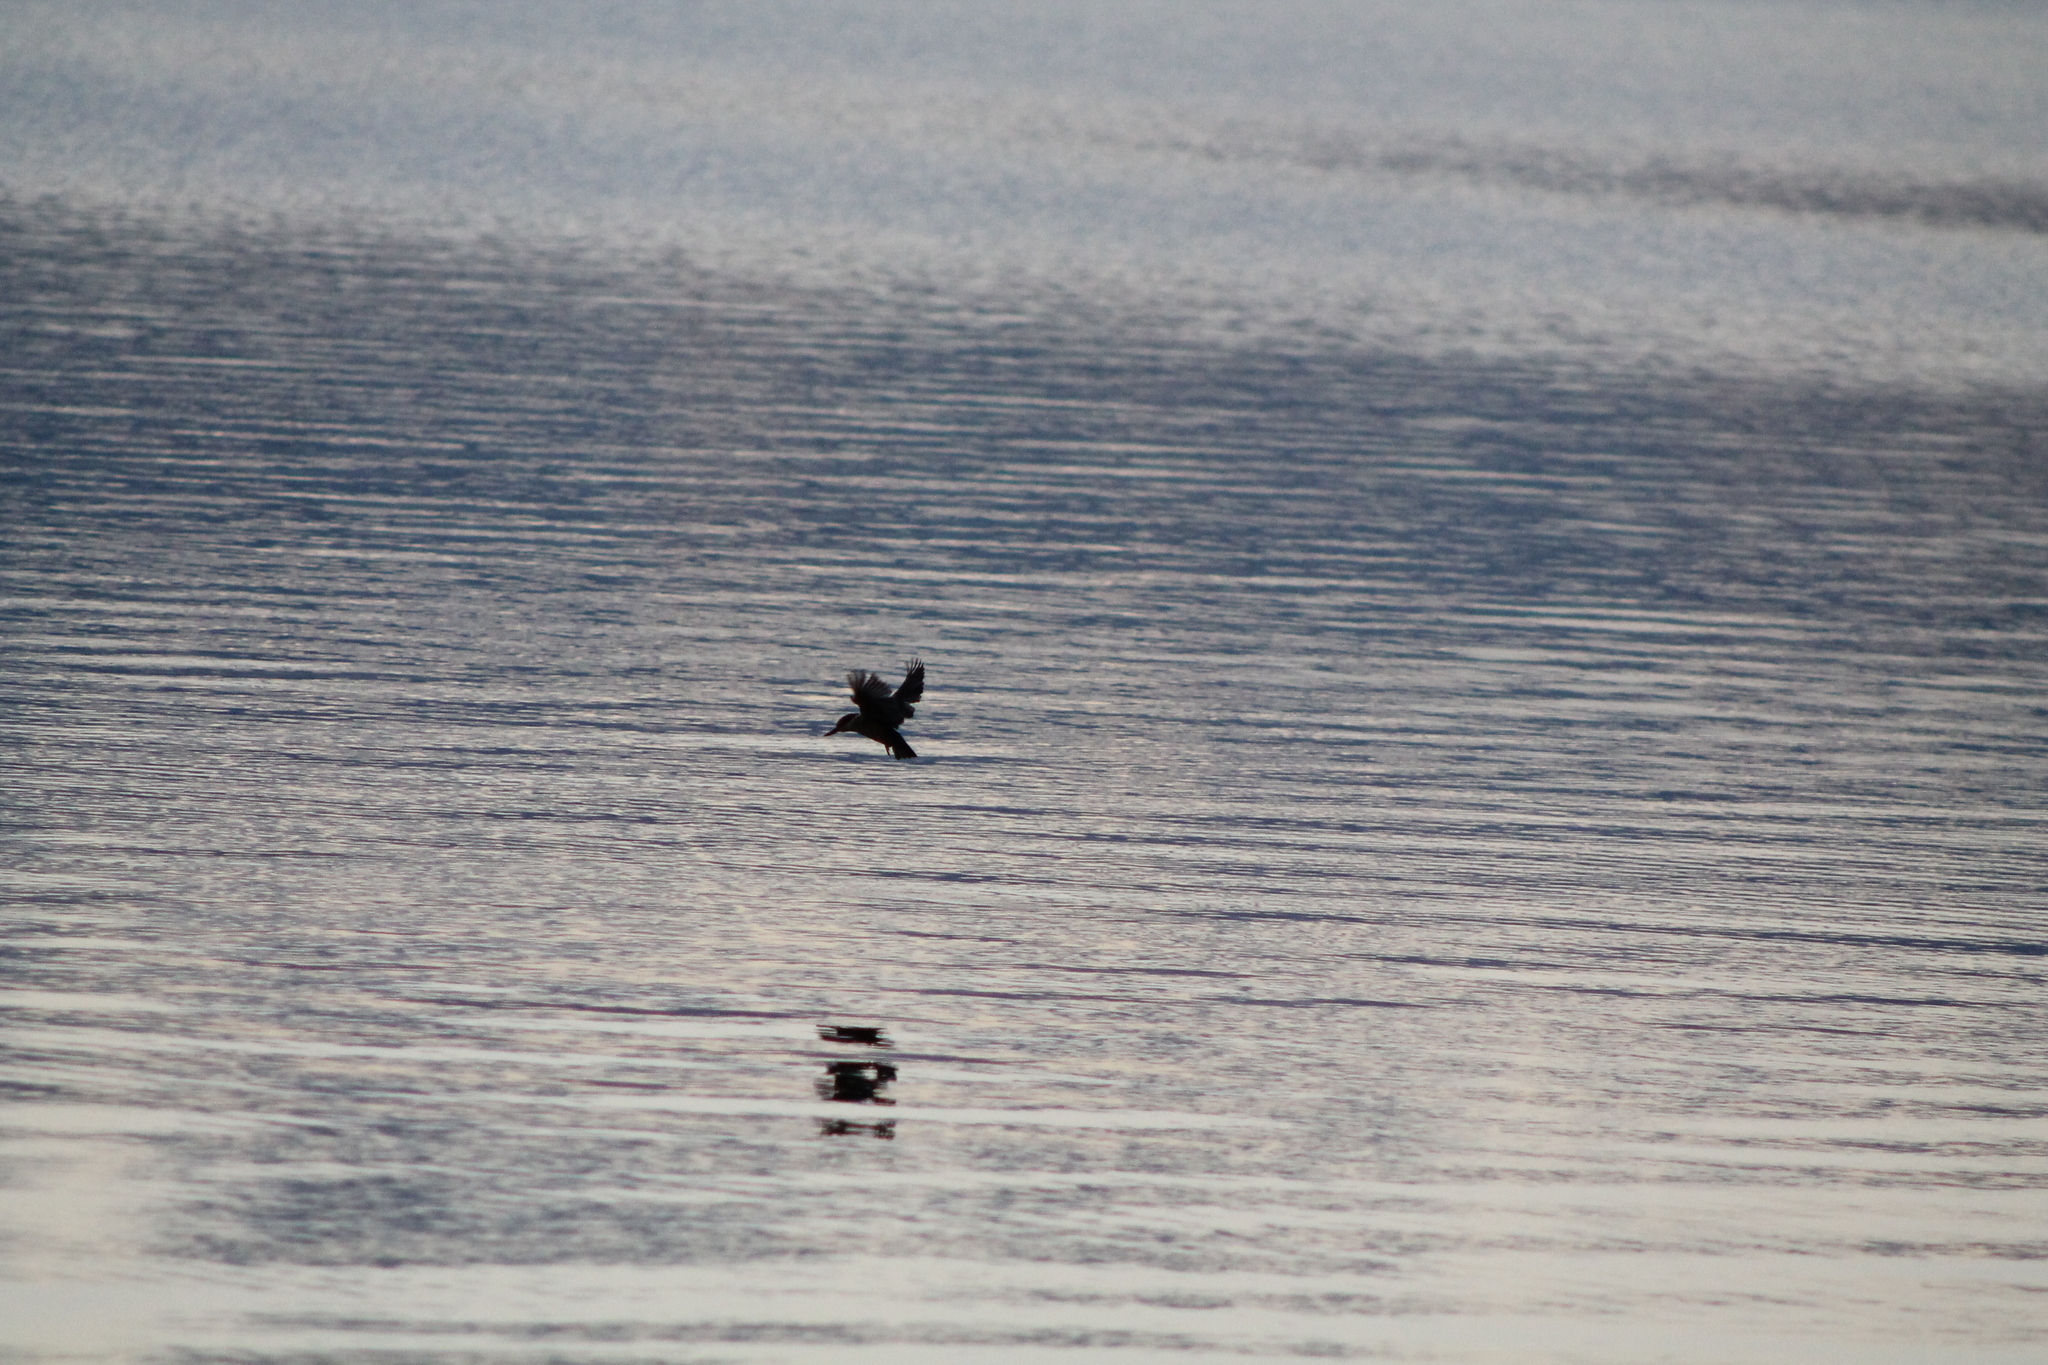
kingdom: Animalia
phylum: Chordata
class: Aves
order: Coraciiformes
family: Alcedinidae
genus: Todiramphus
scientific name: Todiramphus sanctus
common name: Sacred kingfisher
